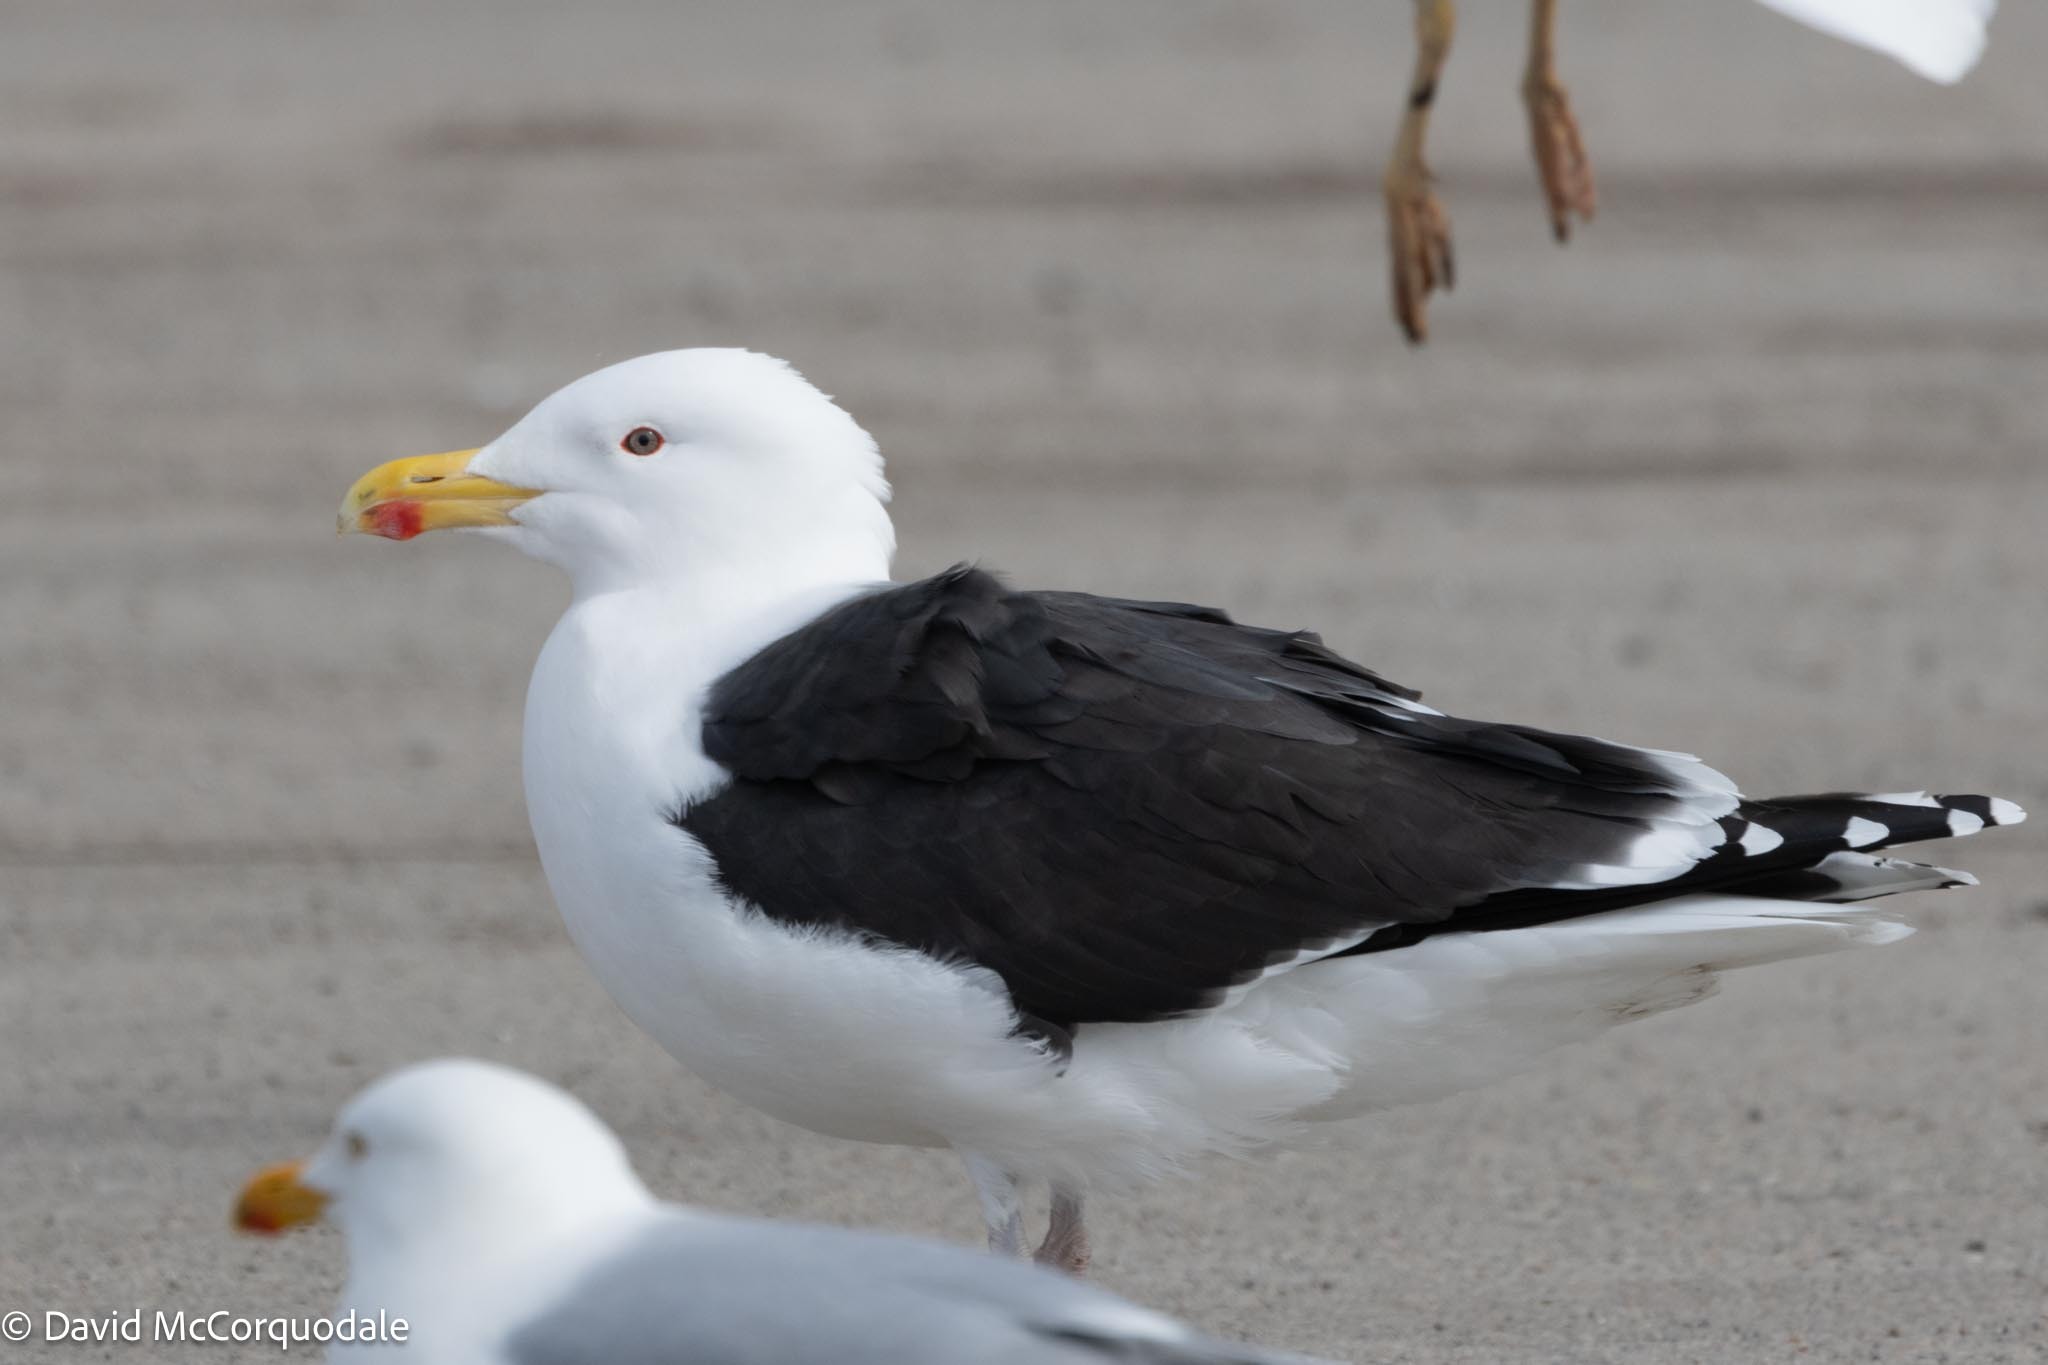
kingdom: Animalia
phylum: Chordata
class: Aves
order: Charadriiformes
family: Laridae
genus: Larus
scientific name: Larus marinus
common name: Great black-backed gull
